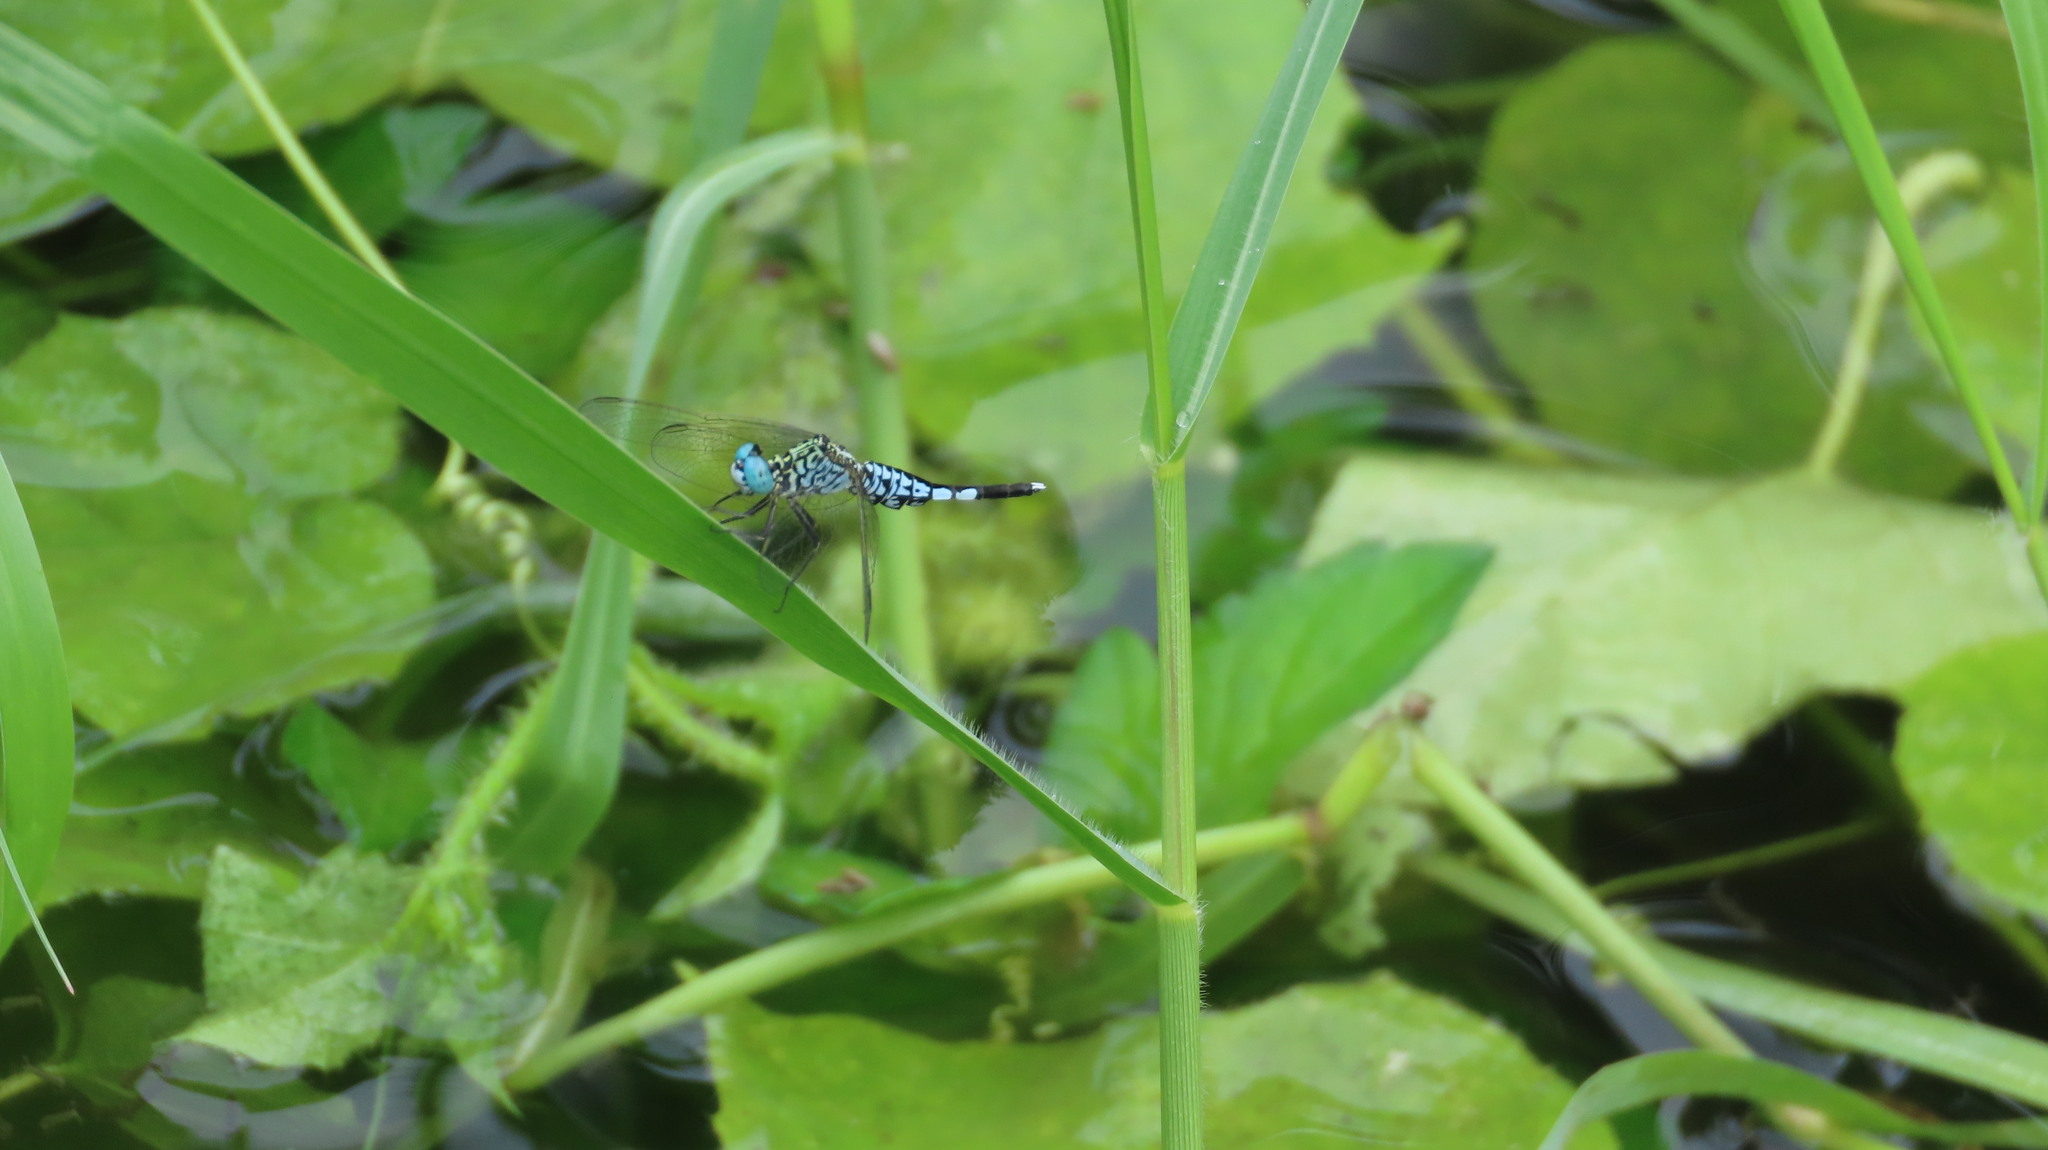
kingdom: Animalia
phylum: Arthropoda
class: Insecta
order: Odonata
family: Libellulidae
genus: Acisoma
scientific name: Acisoma panorpoides
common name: Asian pintail
